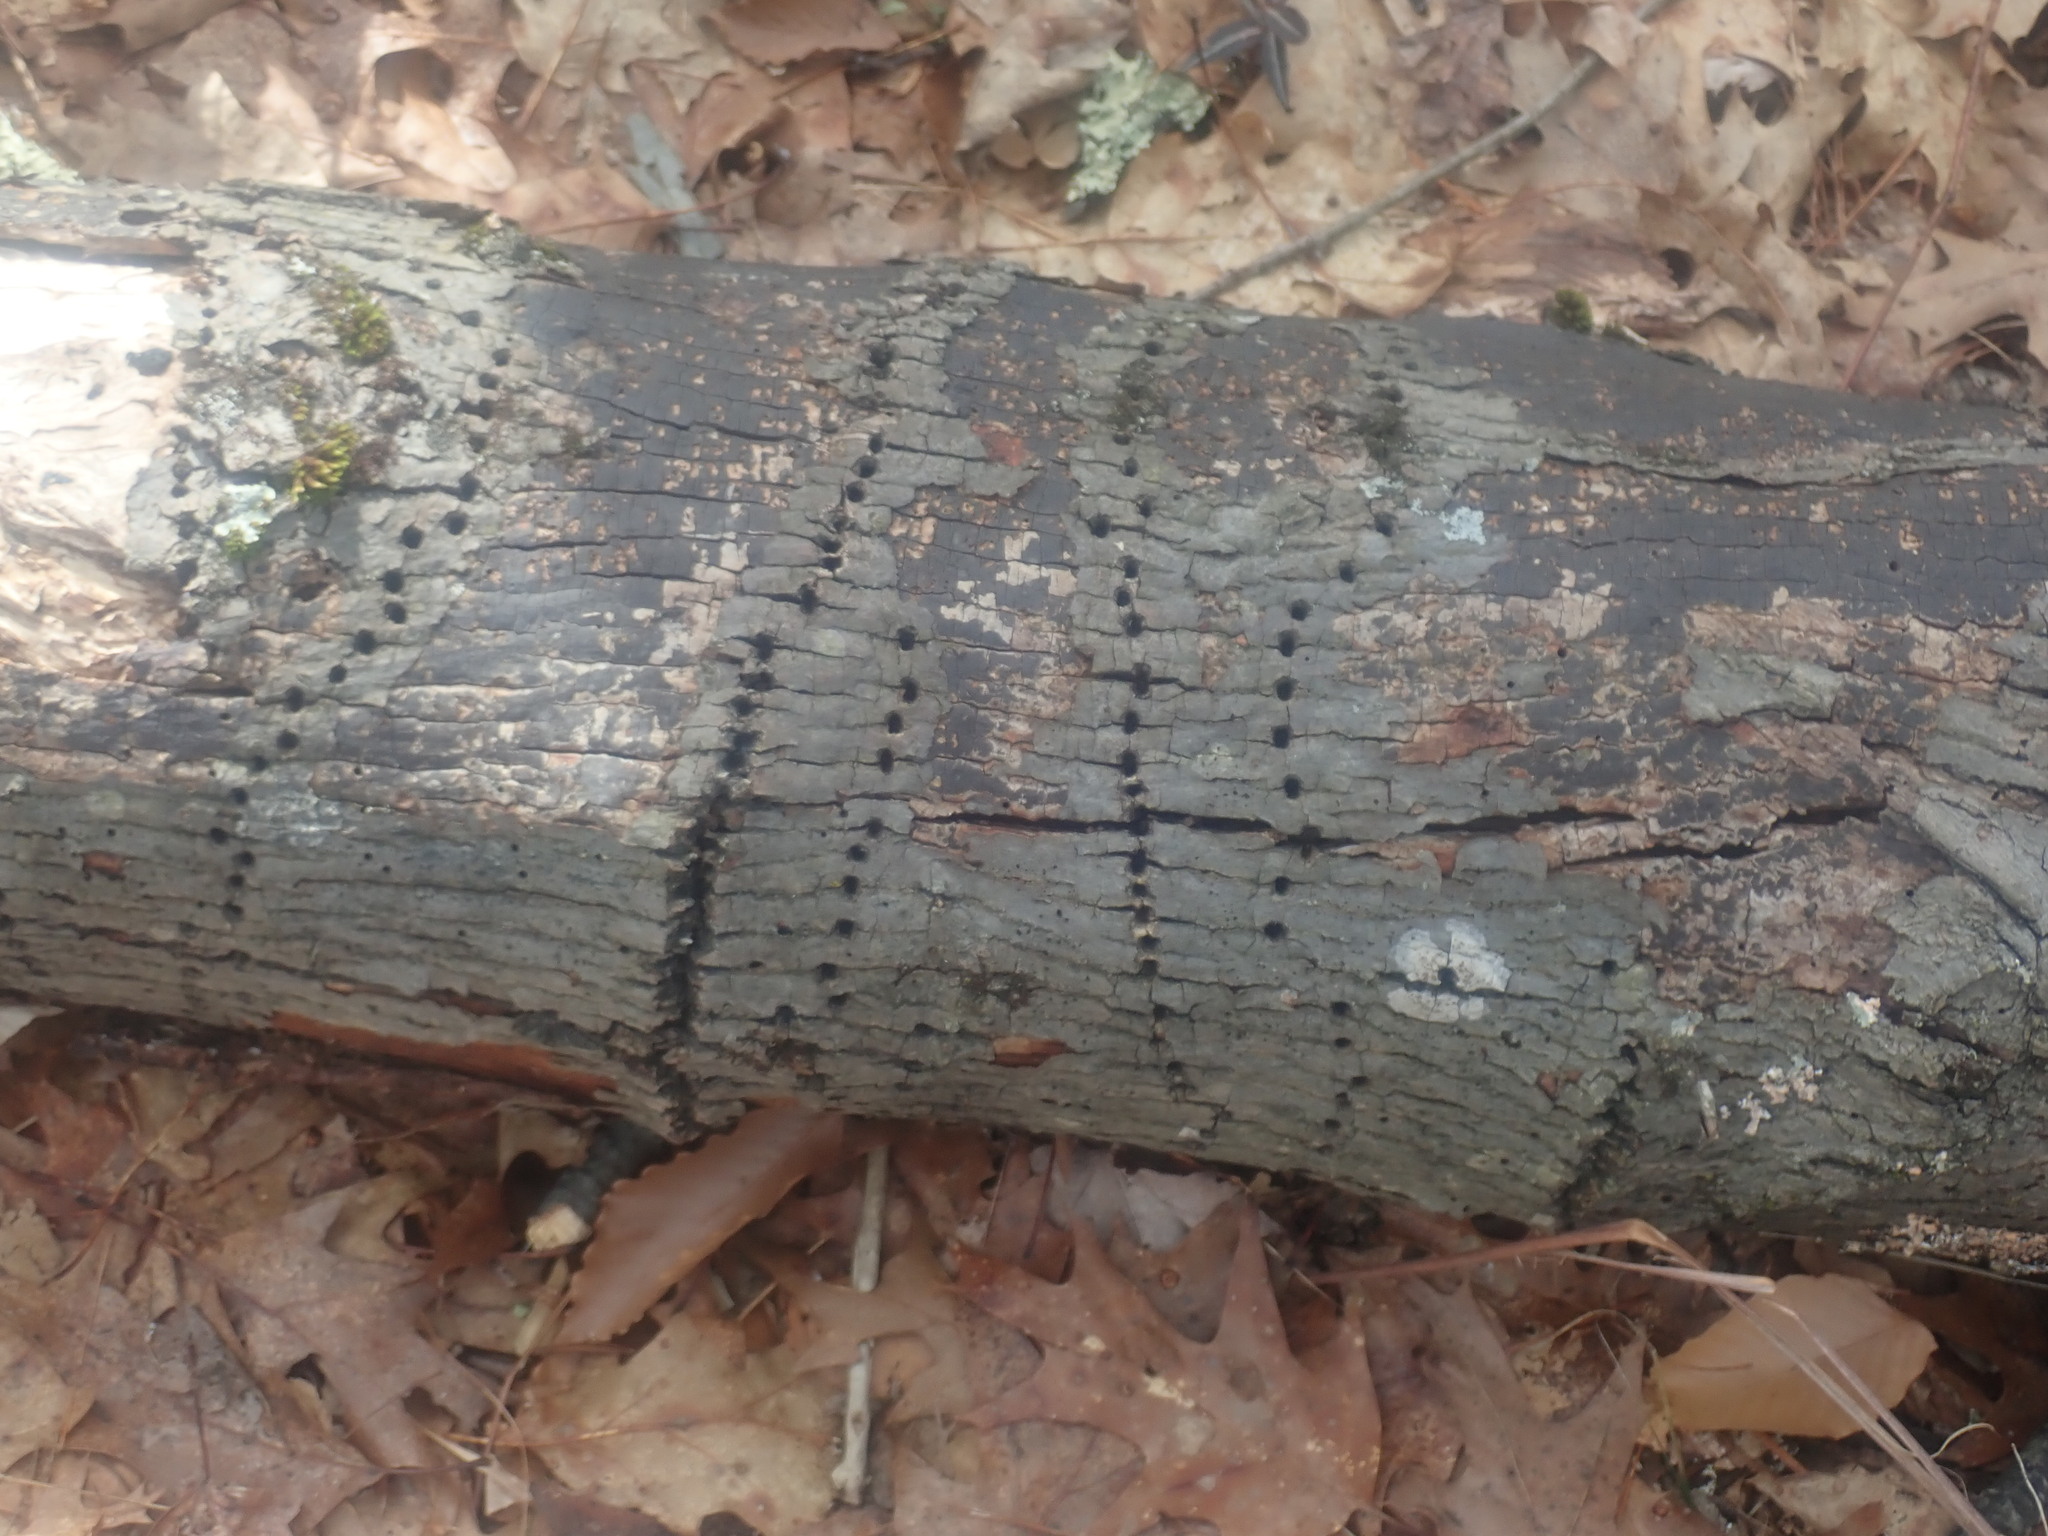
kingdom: Animalia
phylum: Chordata
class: Aves
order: Piciformes
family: Picidae
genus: Sphyrapicus
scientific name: Sphyrapicus varius
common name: Yellow-bellied sapsucker
